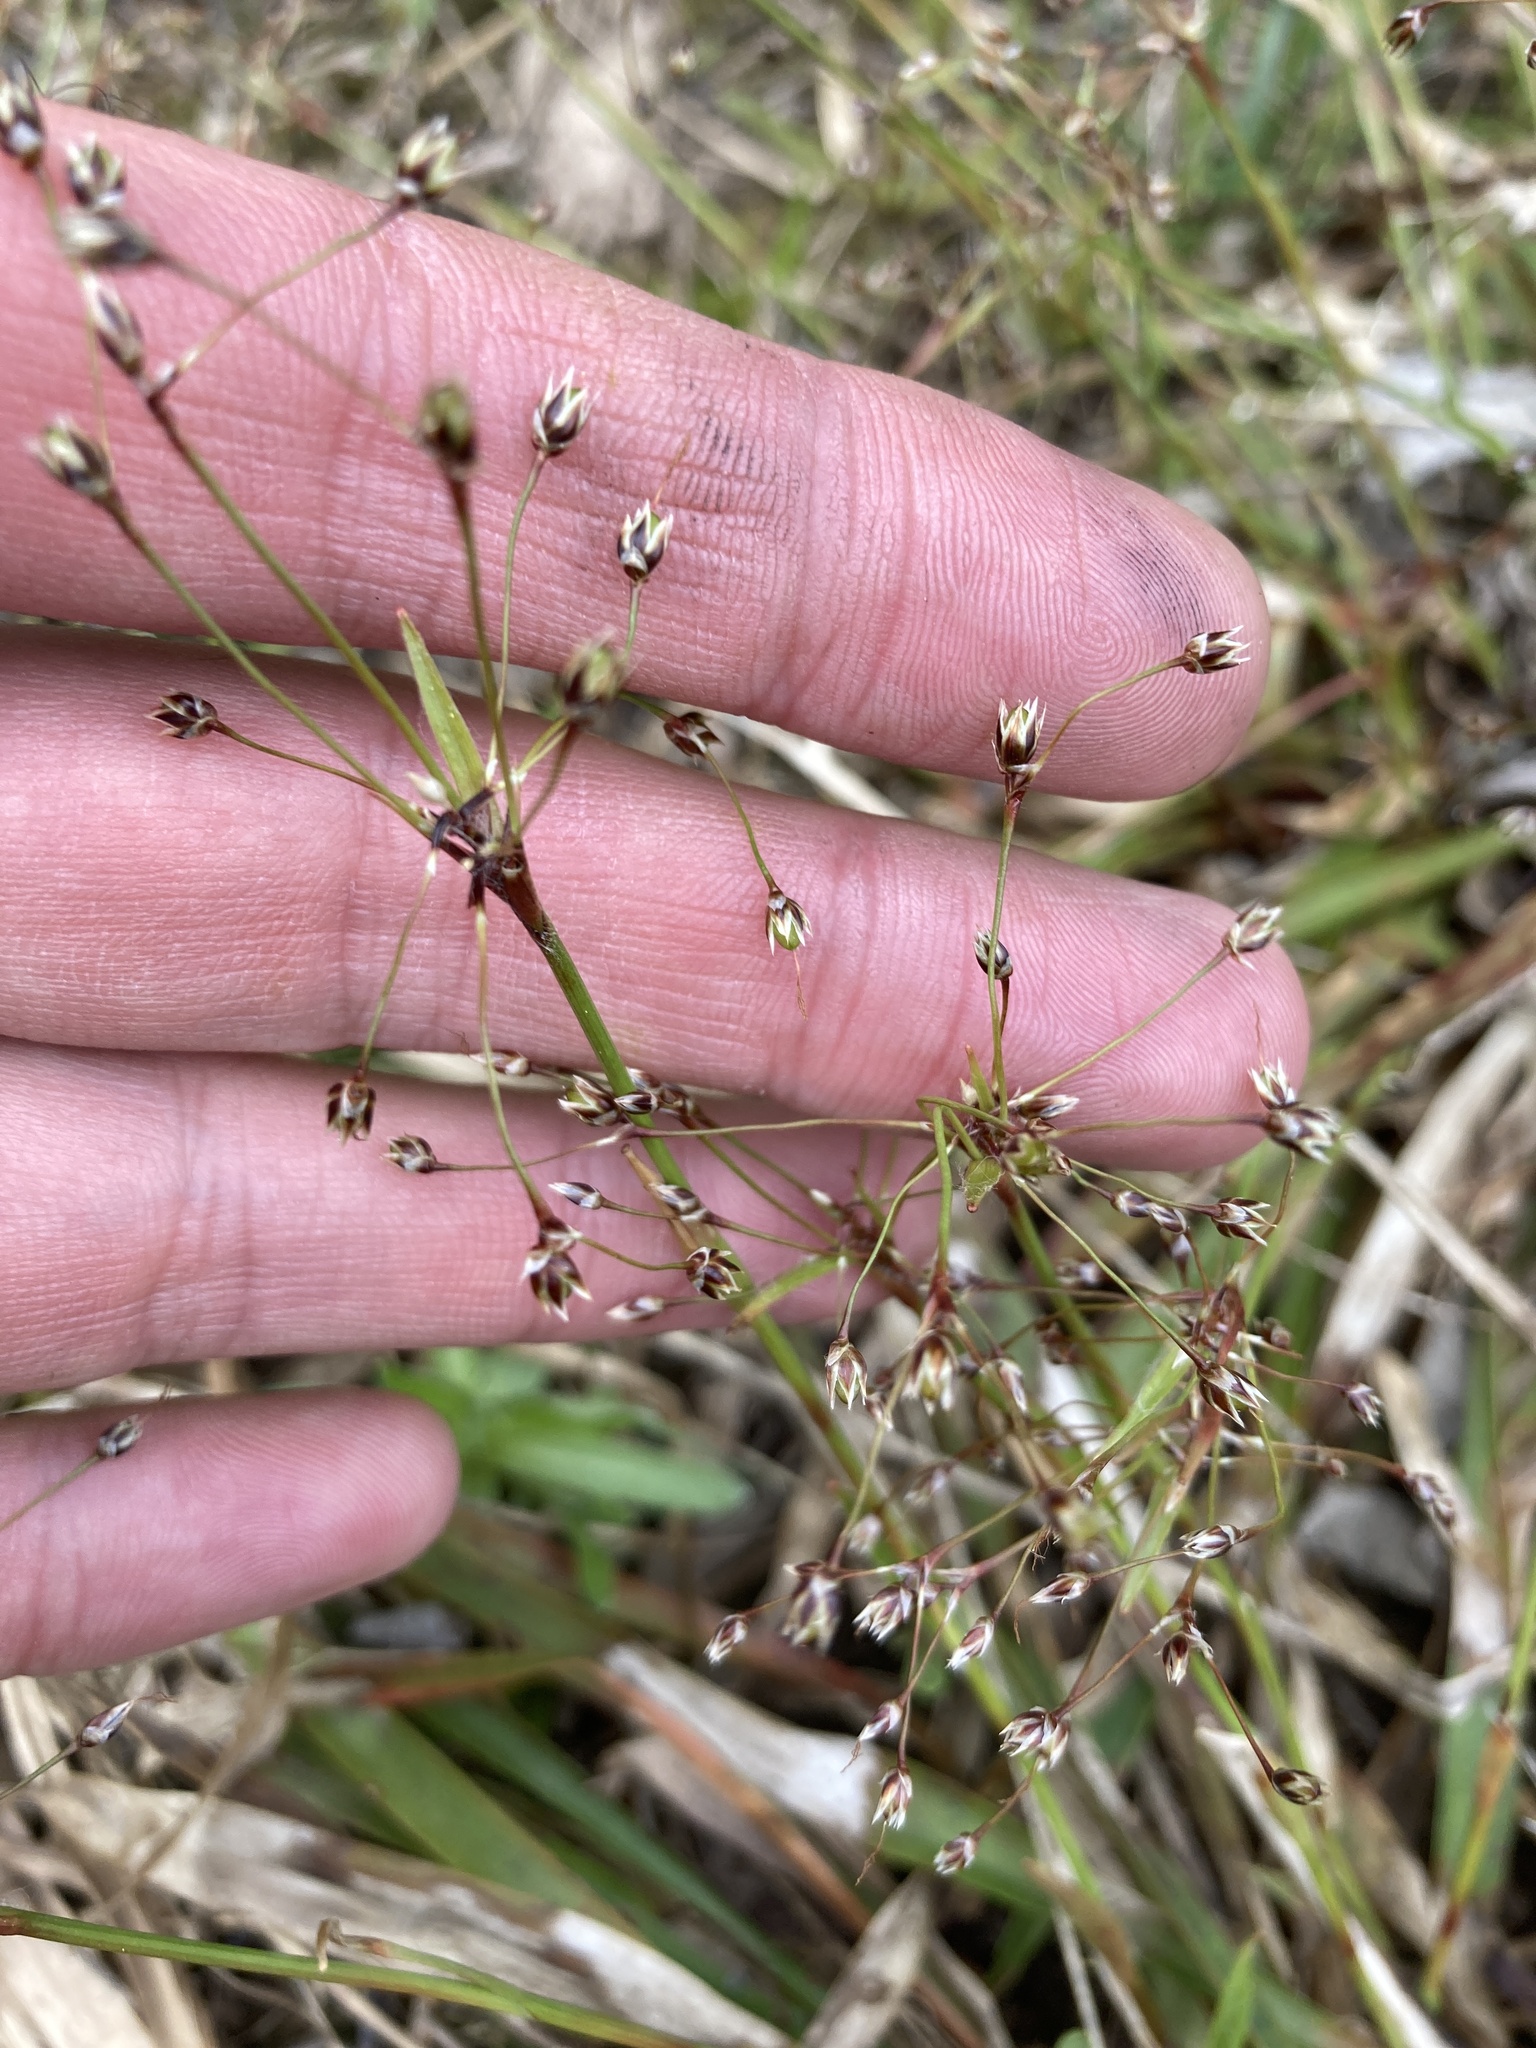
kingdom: Plantae
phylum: Tracheophyta
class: Liliopsida
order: Poales
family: Juncaceae
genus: Luzula
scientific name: Luzula pilosa
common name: Hairy wood-rush
